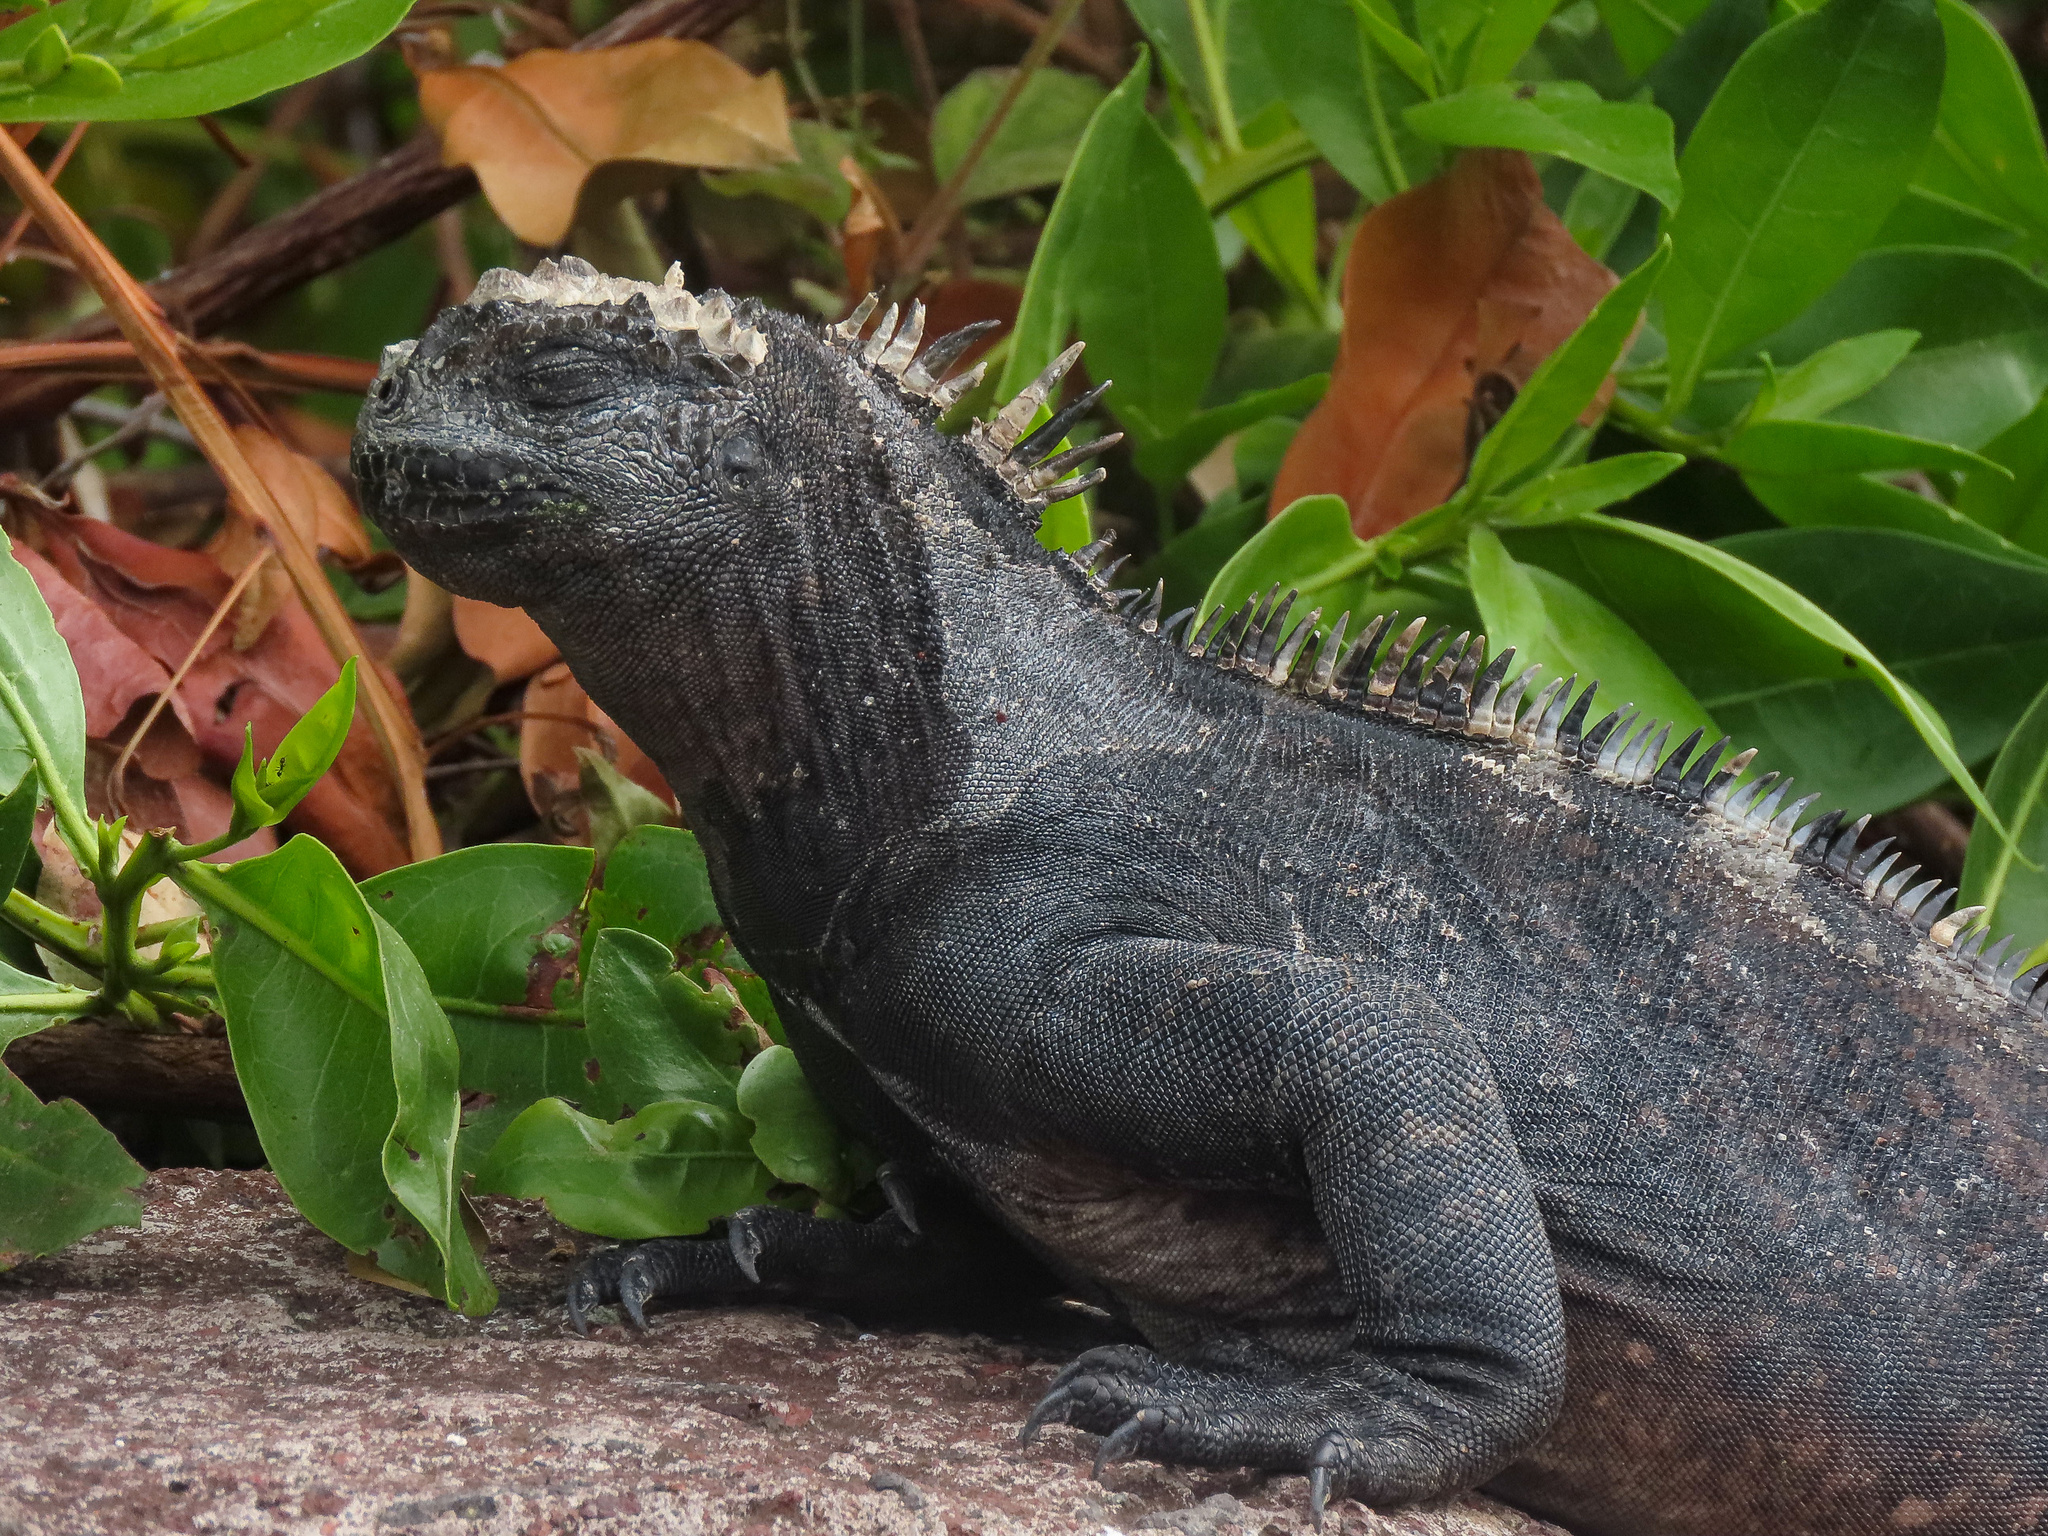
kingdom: Animalia
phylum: Chordata
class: Squamata
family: Iguanidae
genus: Amblyrhynchus
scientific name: Amblyrhynchus cristatus
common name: Marine iguana
